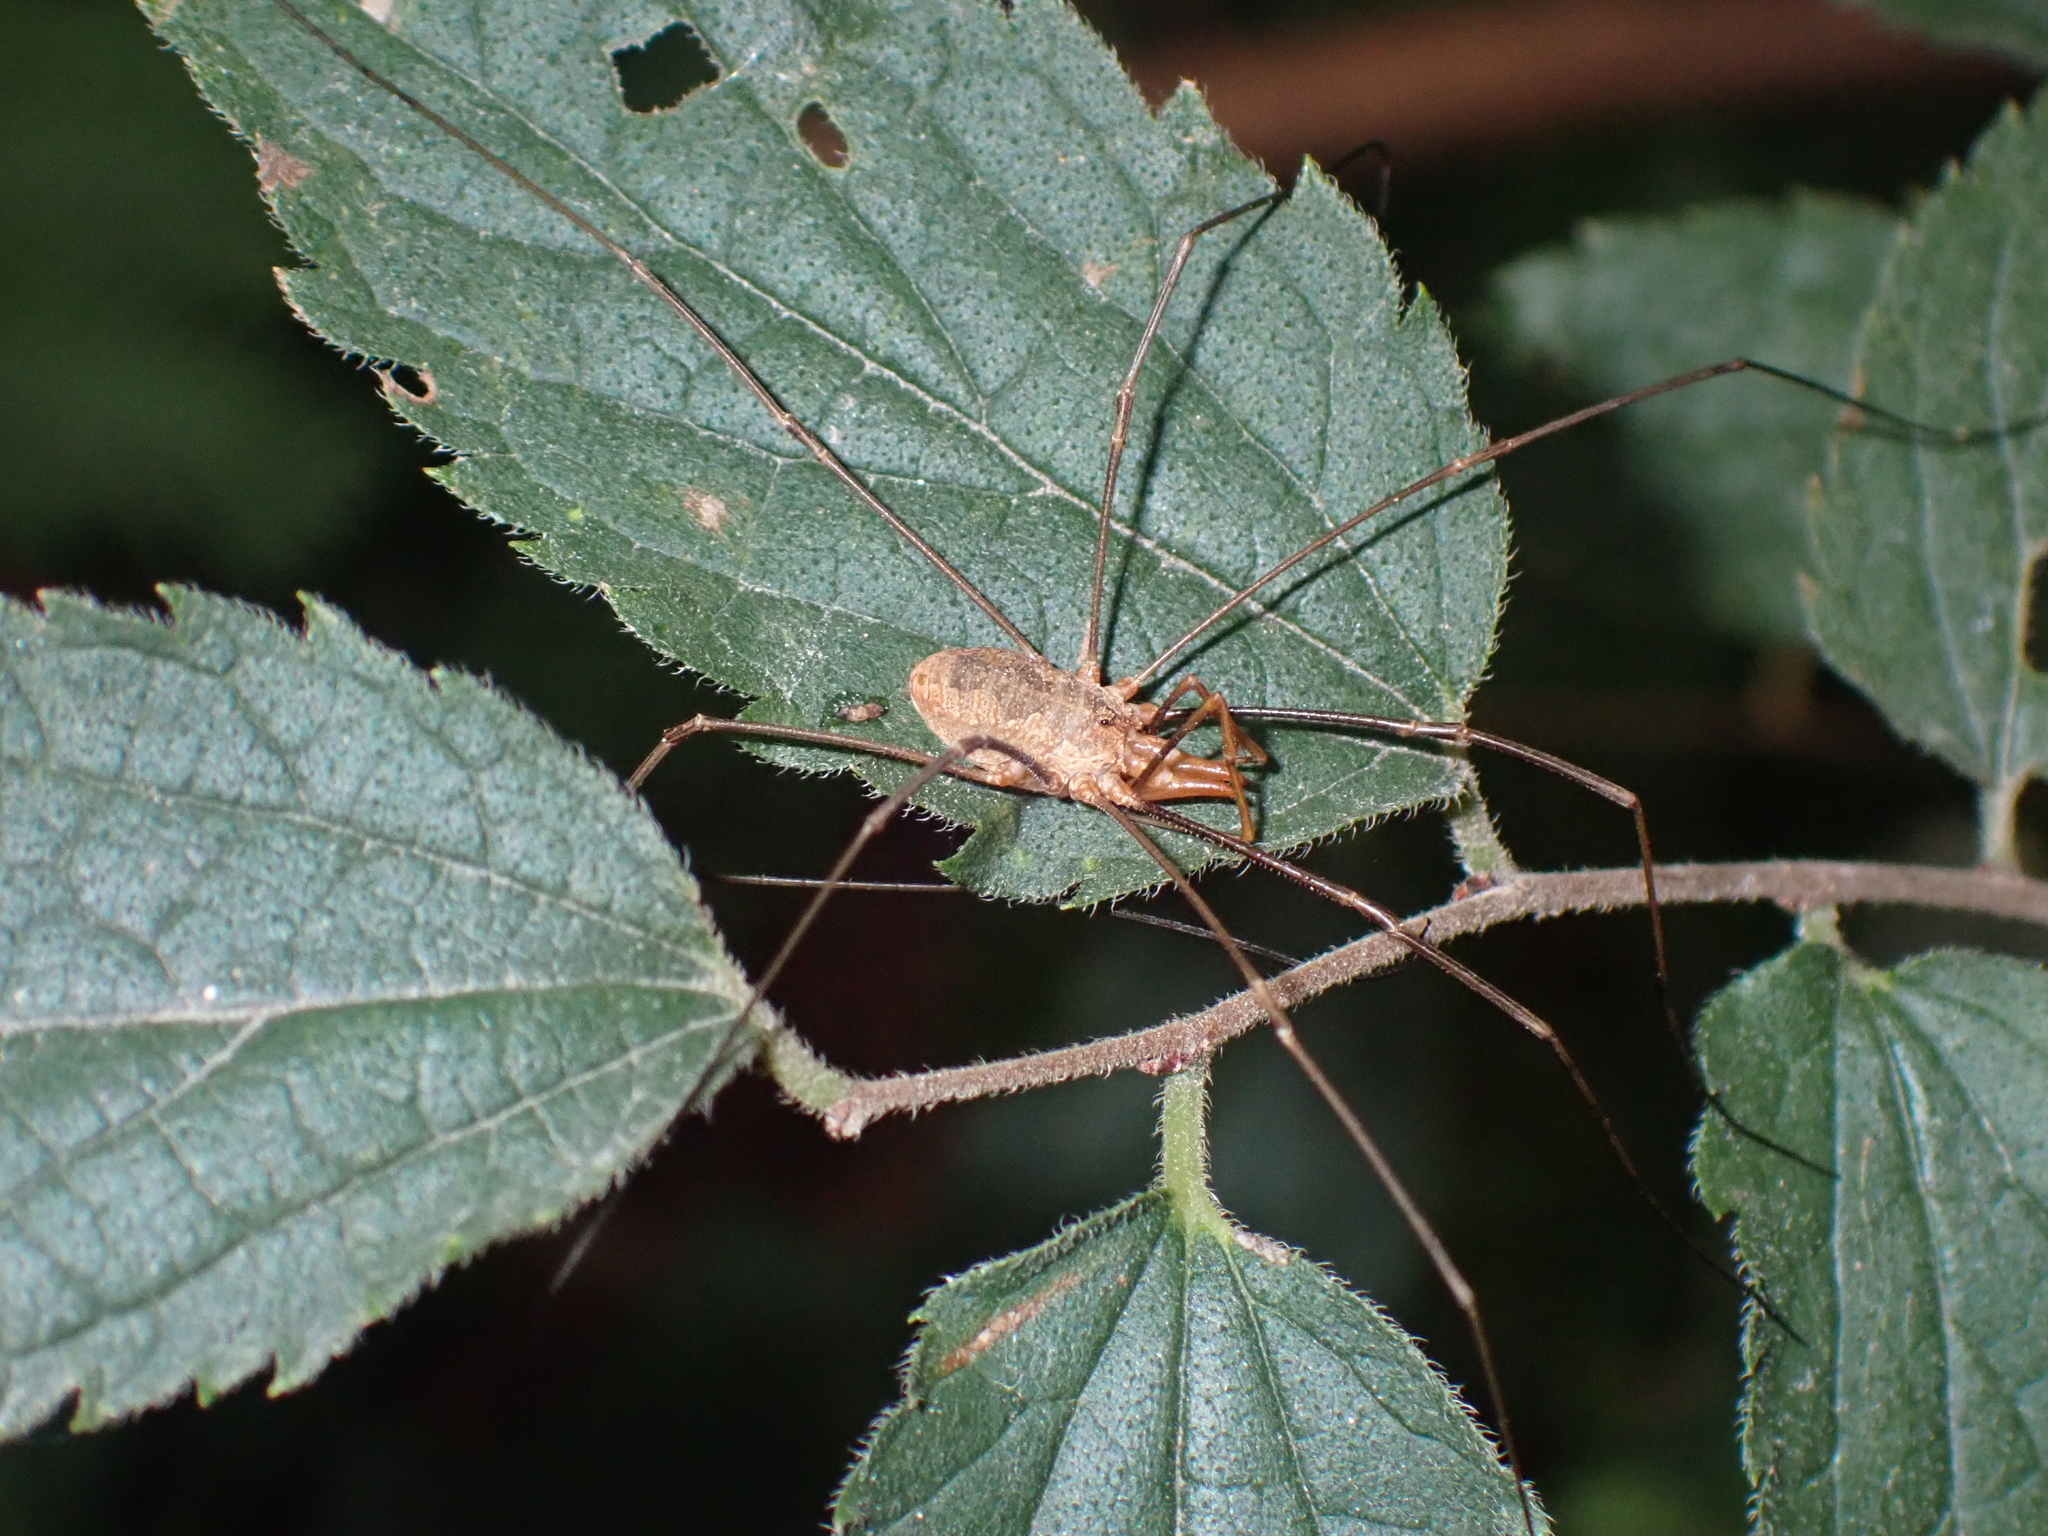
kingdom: Animalia
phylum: Arthropoda
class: Arachnida
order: Opiliones
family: Phalangiidae
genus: Phalangium
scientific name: Phalangium opilio
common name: Daddy longleg
